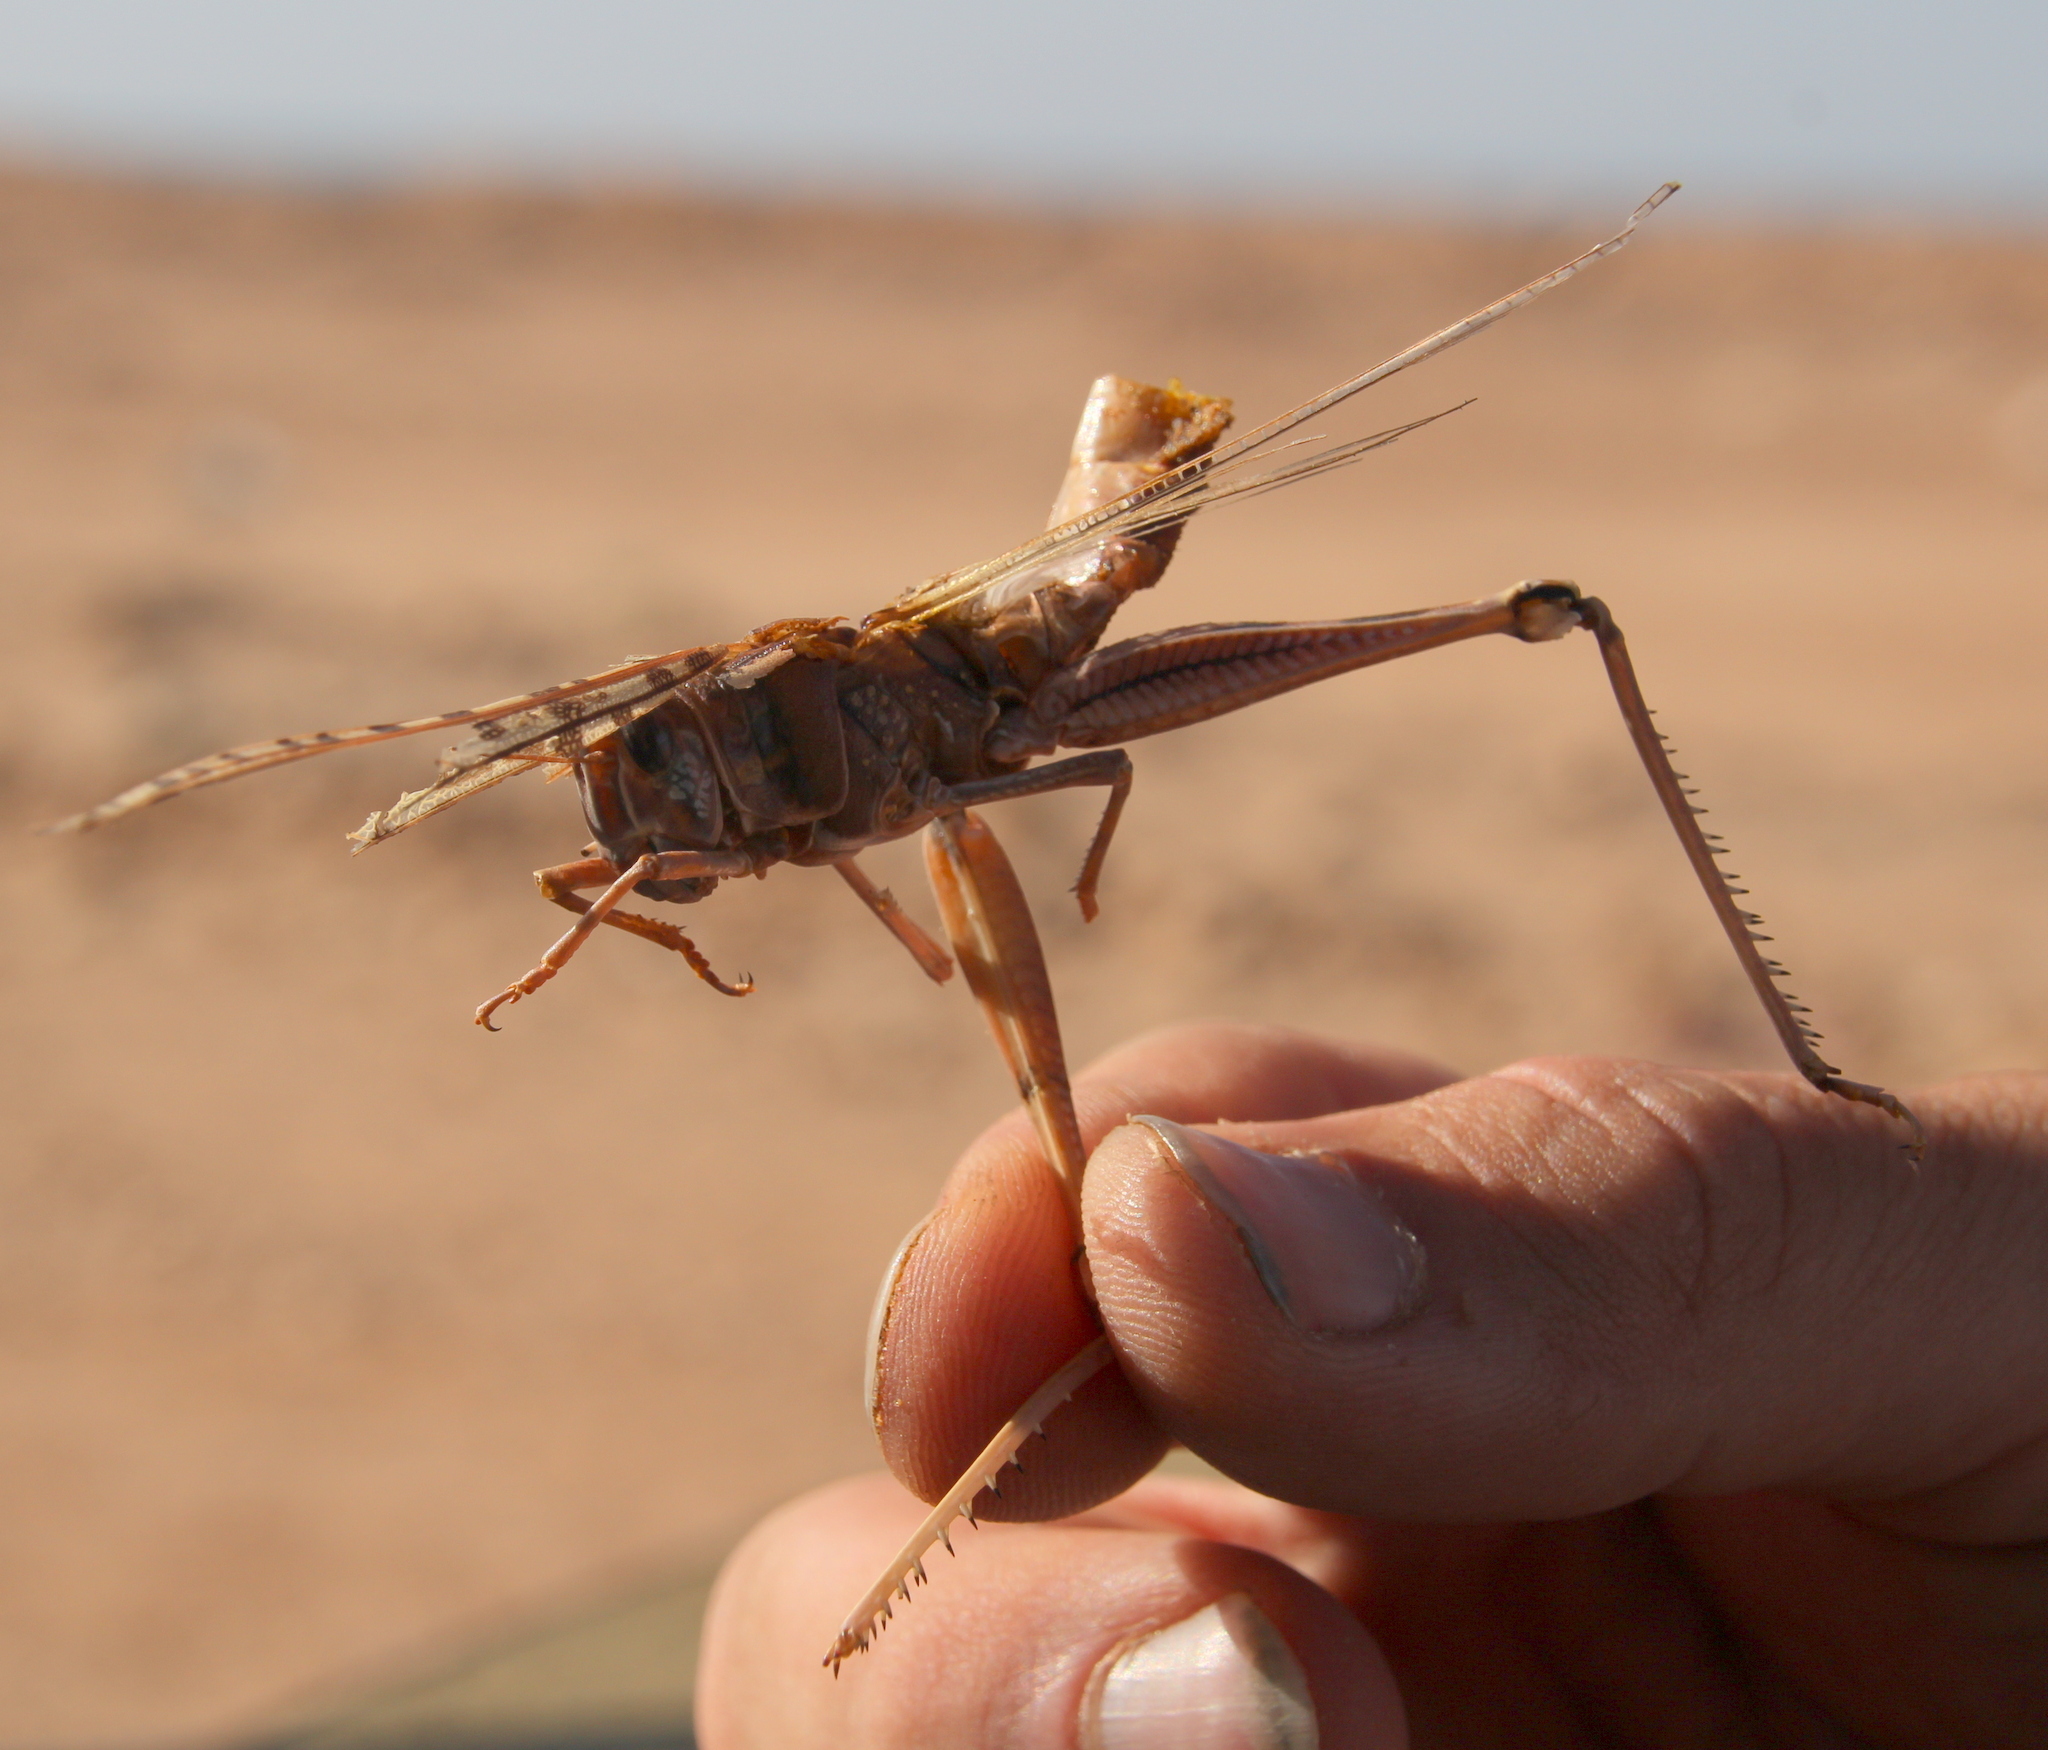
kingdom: Animalia
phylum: Arthropoda
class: Insecta
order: Orthoptera
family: Acrididae
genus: Schistocerca
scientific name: Schistocerca gregaria
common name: Desert locust
